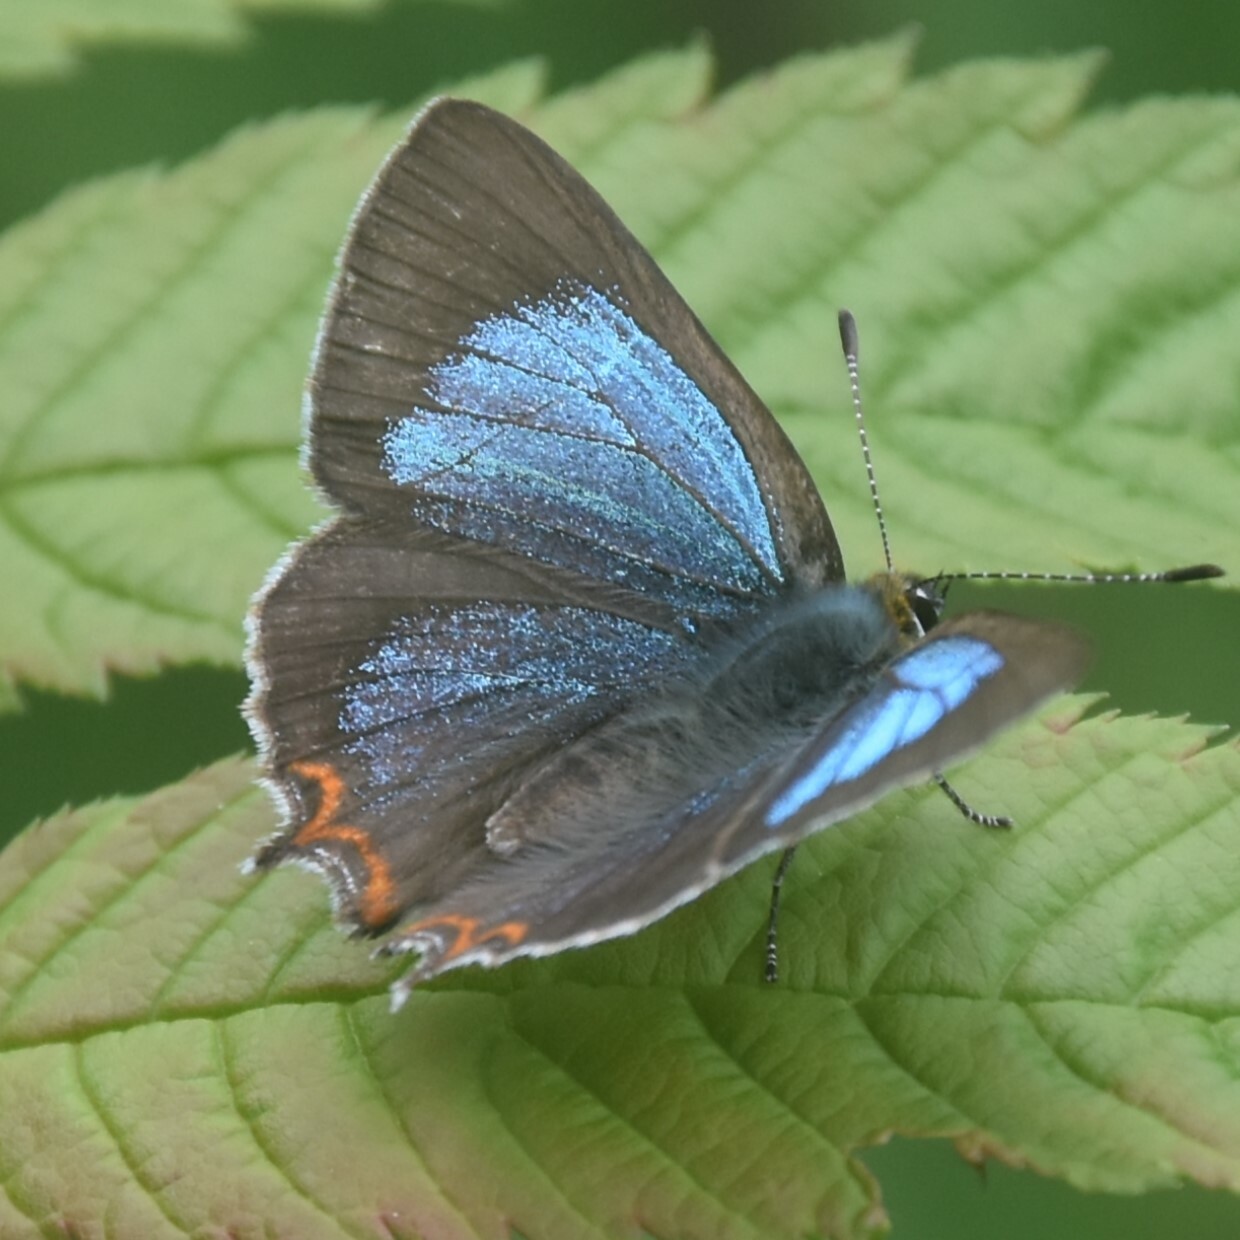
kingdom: Animalia
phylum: Arthropoda
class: Insecta
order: Lepidoptera
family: Lycaenidae
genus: Heliophorus
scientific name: Heliophorus
